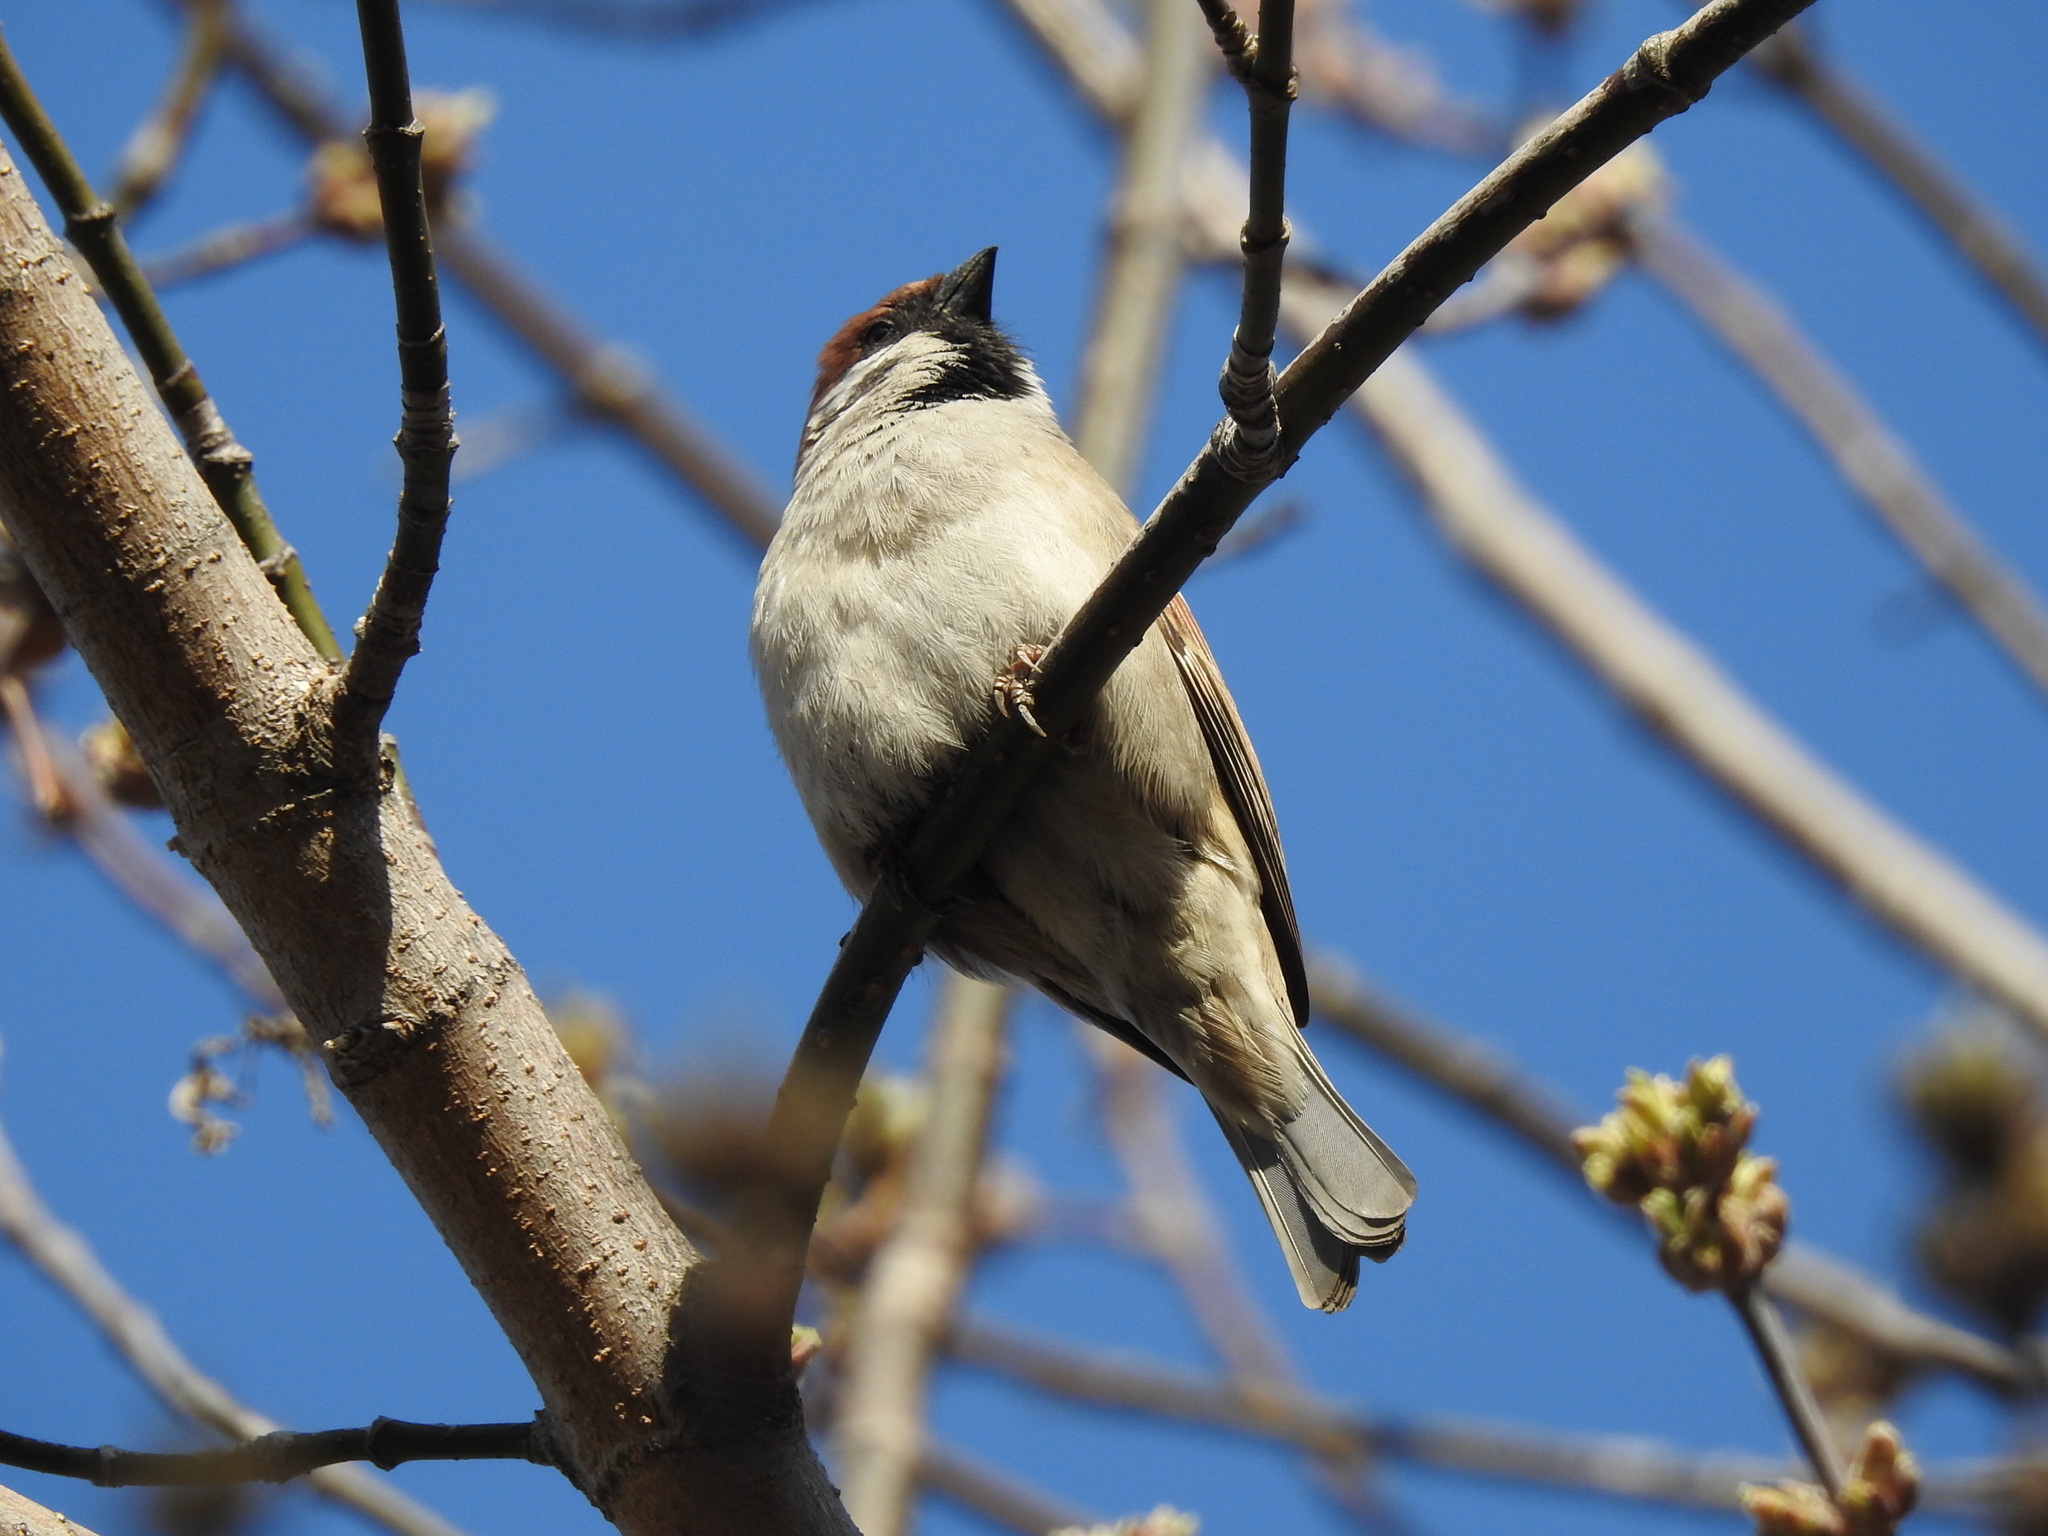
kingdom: Animalia
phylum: Chordata
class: Aves
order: Passeriformes
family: Passeridae
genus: Passer
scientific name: Passer montanus
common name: Eurasian tree sparrow
